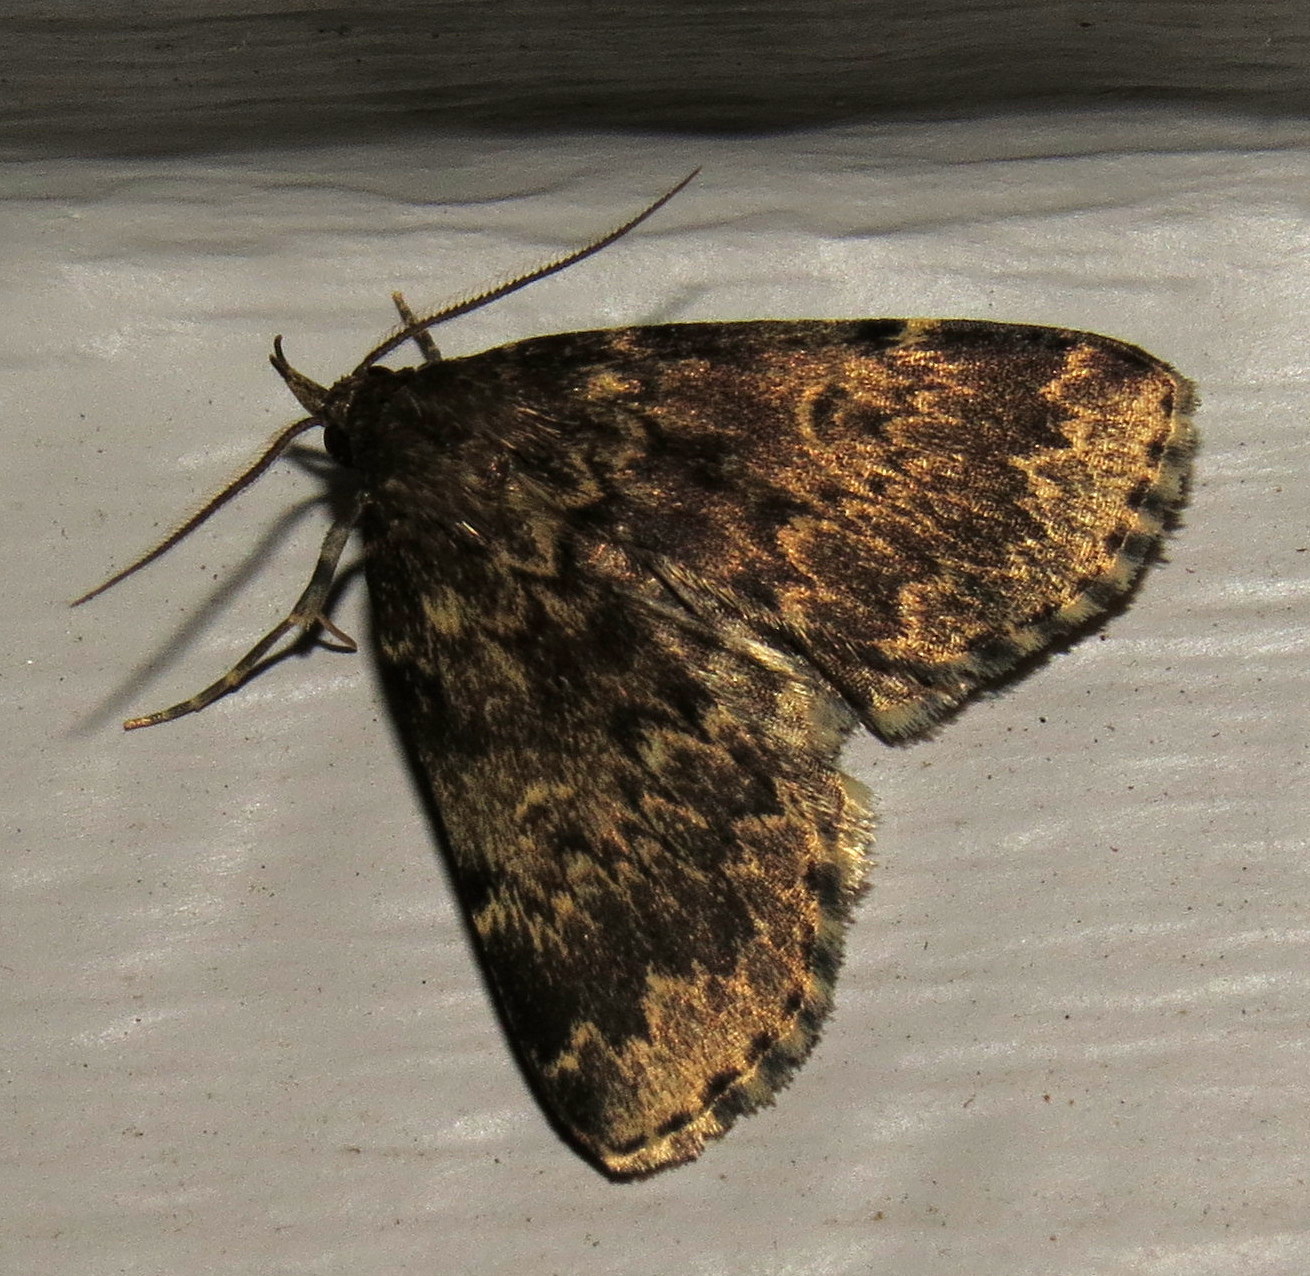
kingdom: Animalia
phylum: Arthropoda
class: Insecta
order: Lepidoptera
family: Erebidae
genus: Idia
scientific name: Idia lubricalis
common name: Twin-striped tabby
